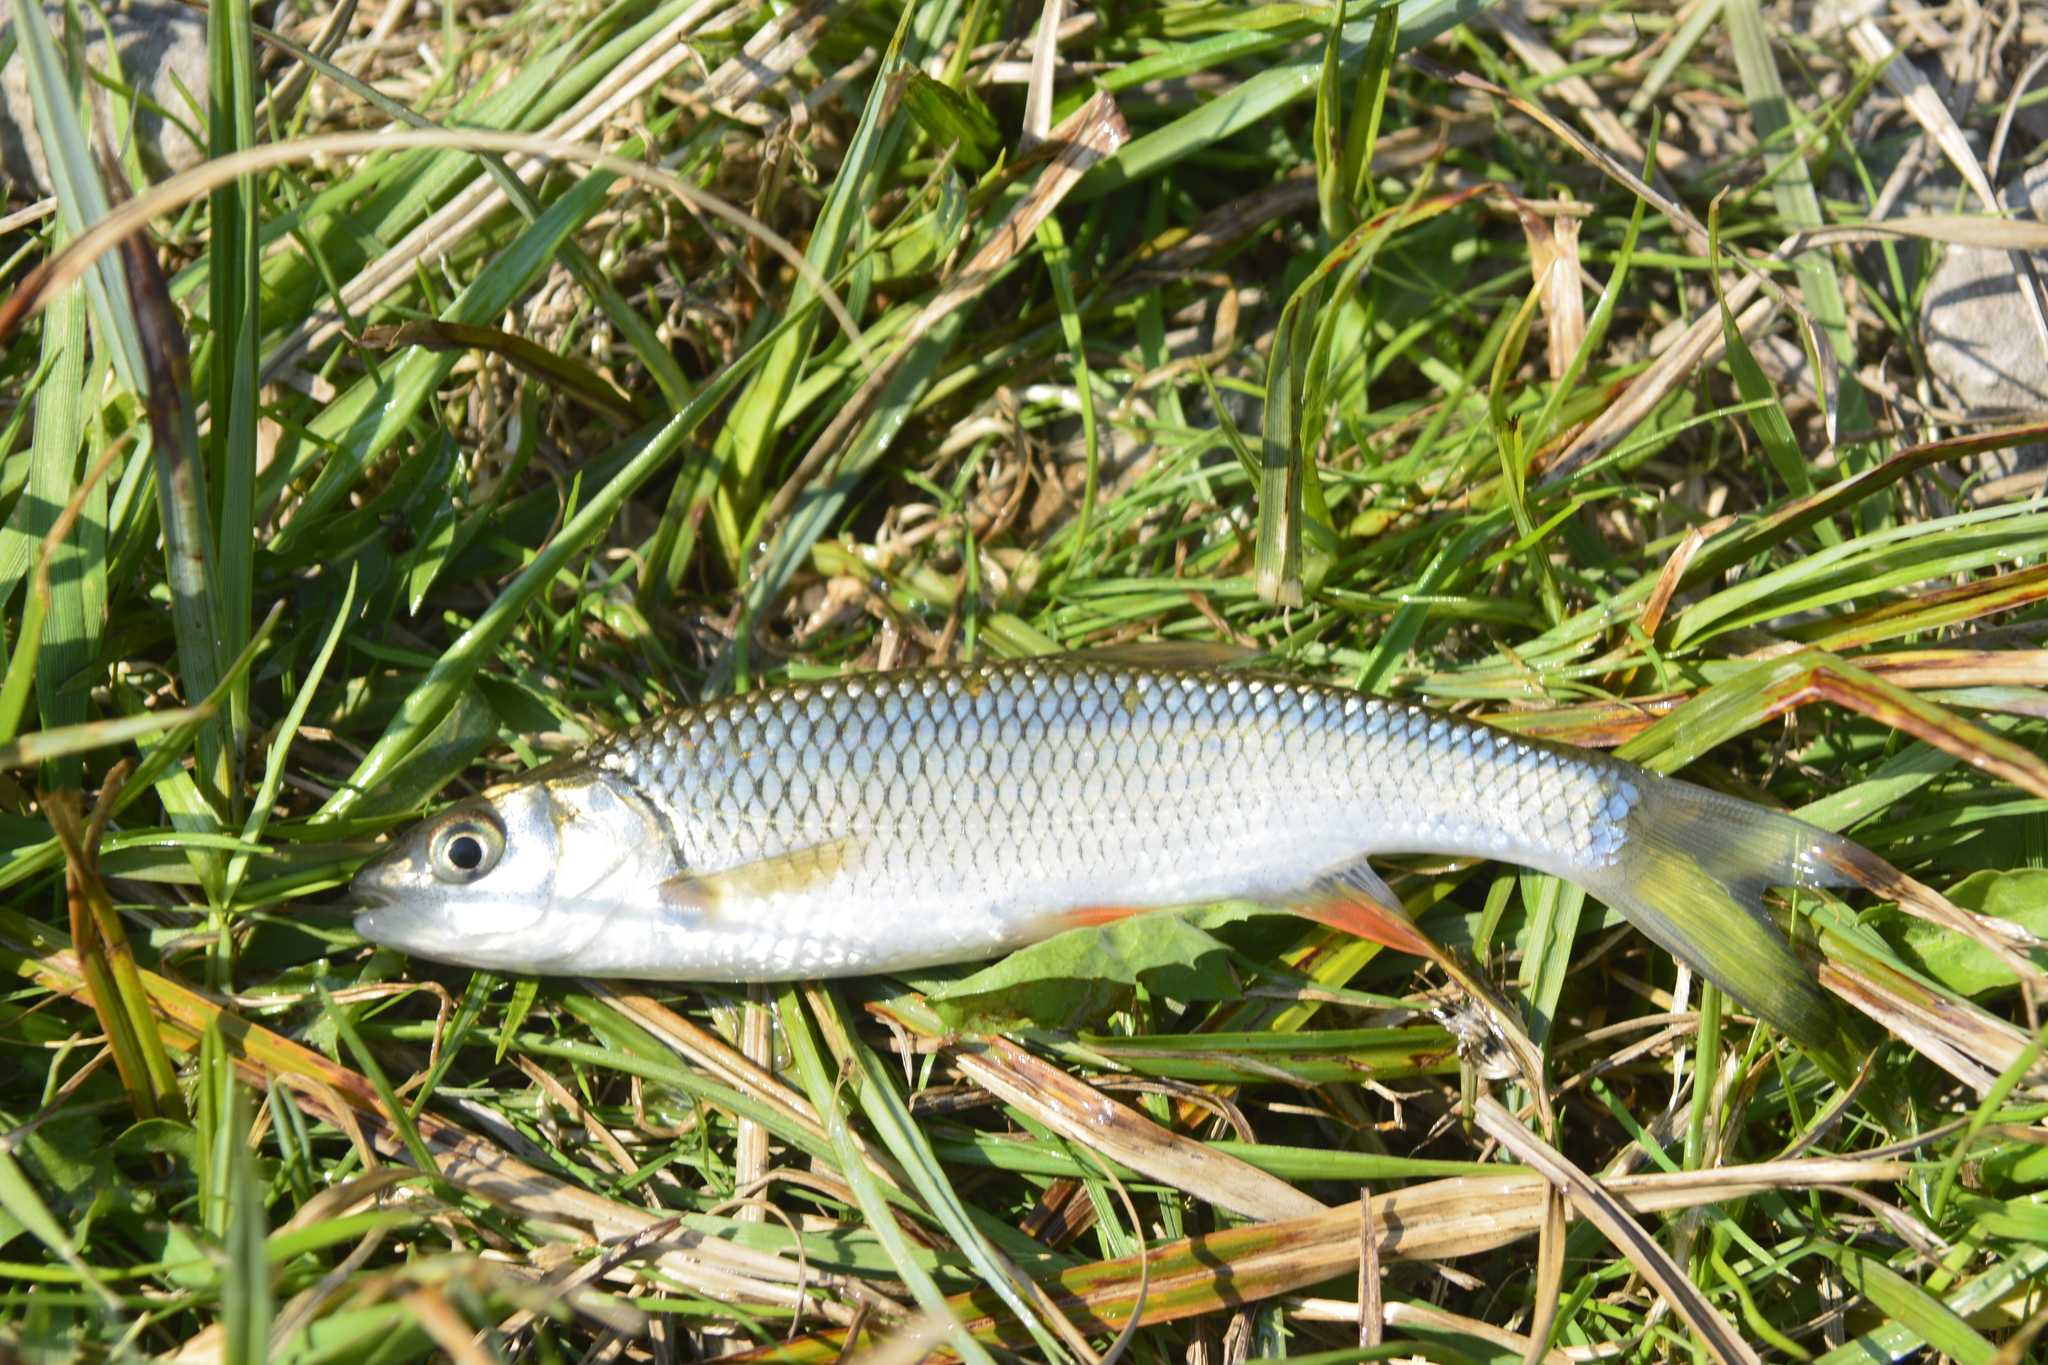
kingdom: Animalia
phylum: Chordata
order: Cypriniformes
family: Cyprinidae
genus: Squalius
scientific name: Squalius cephalus
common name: Chub
